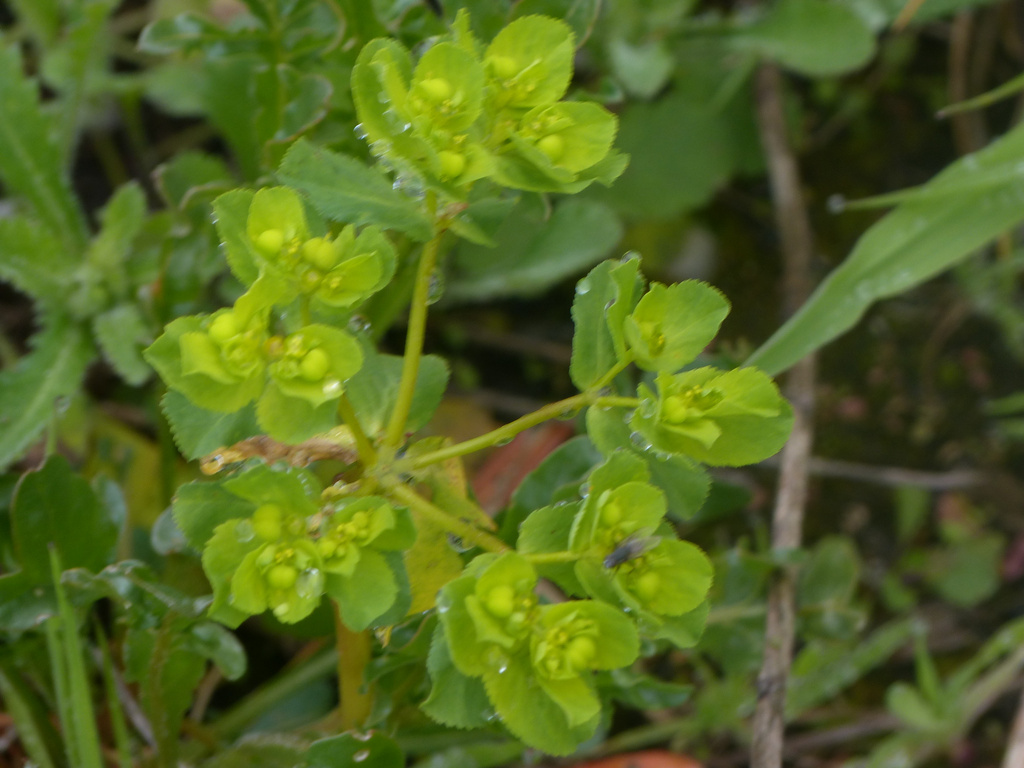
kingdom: Plantae
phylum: Tracheophyta
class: Magnoliopsida
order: Malpighiales
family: Euphorbiaceae
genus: Euphorbia
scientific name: Euphorbia helioscopia
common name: Sun spurge
